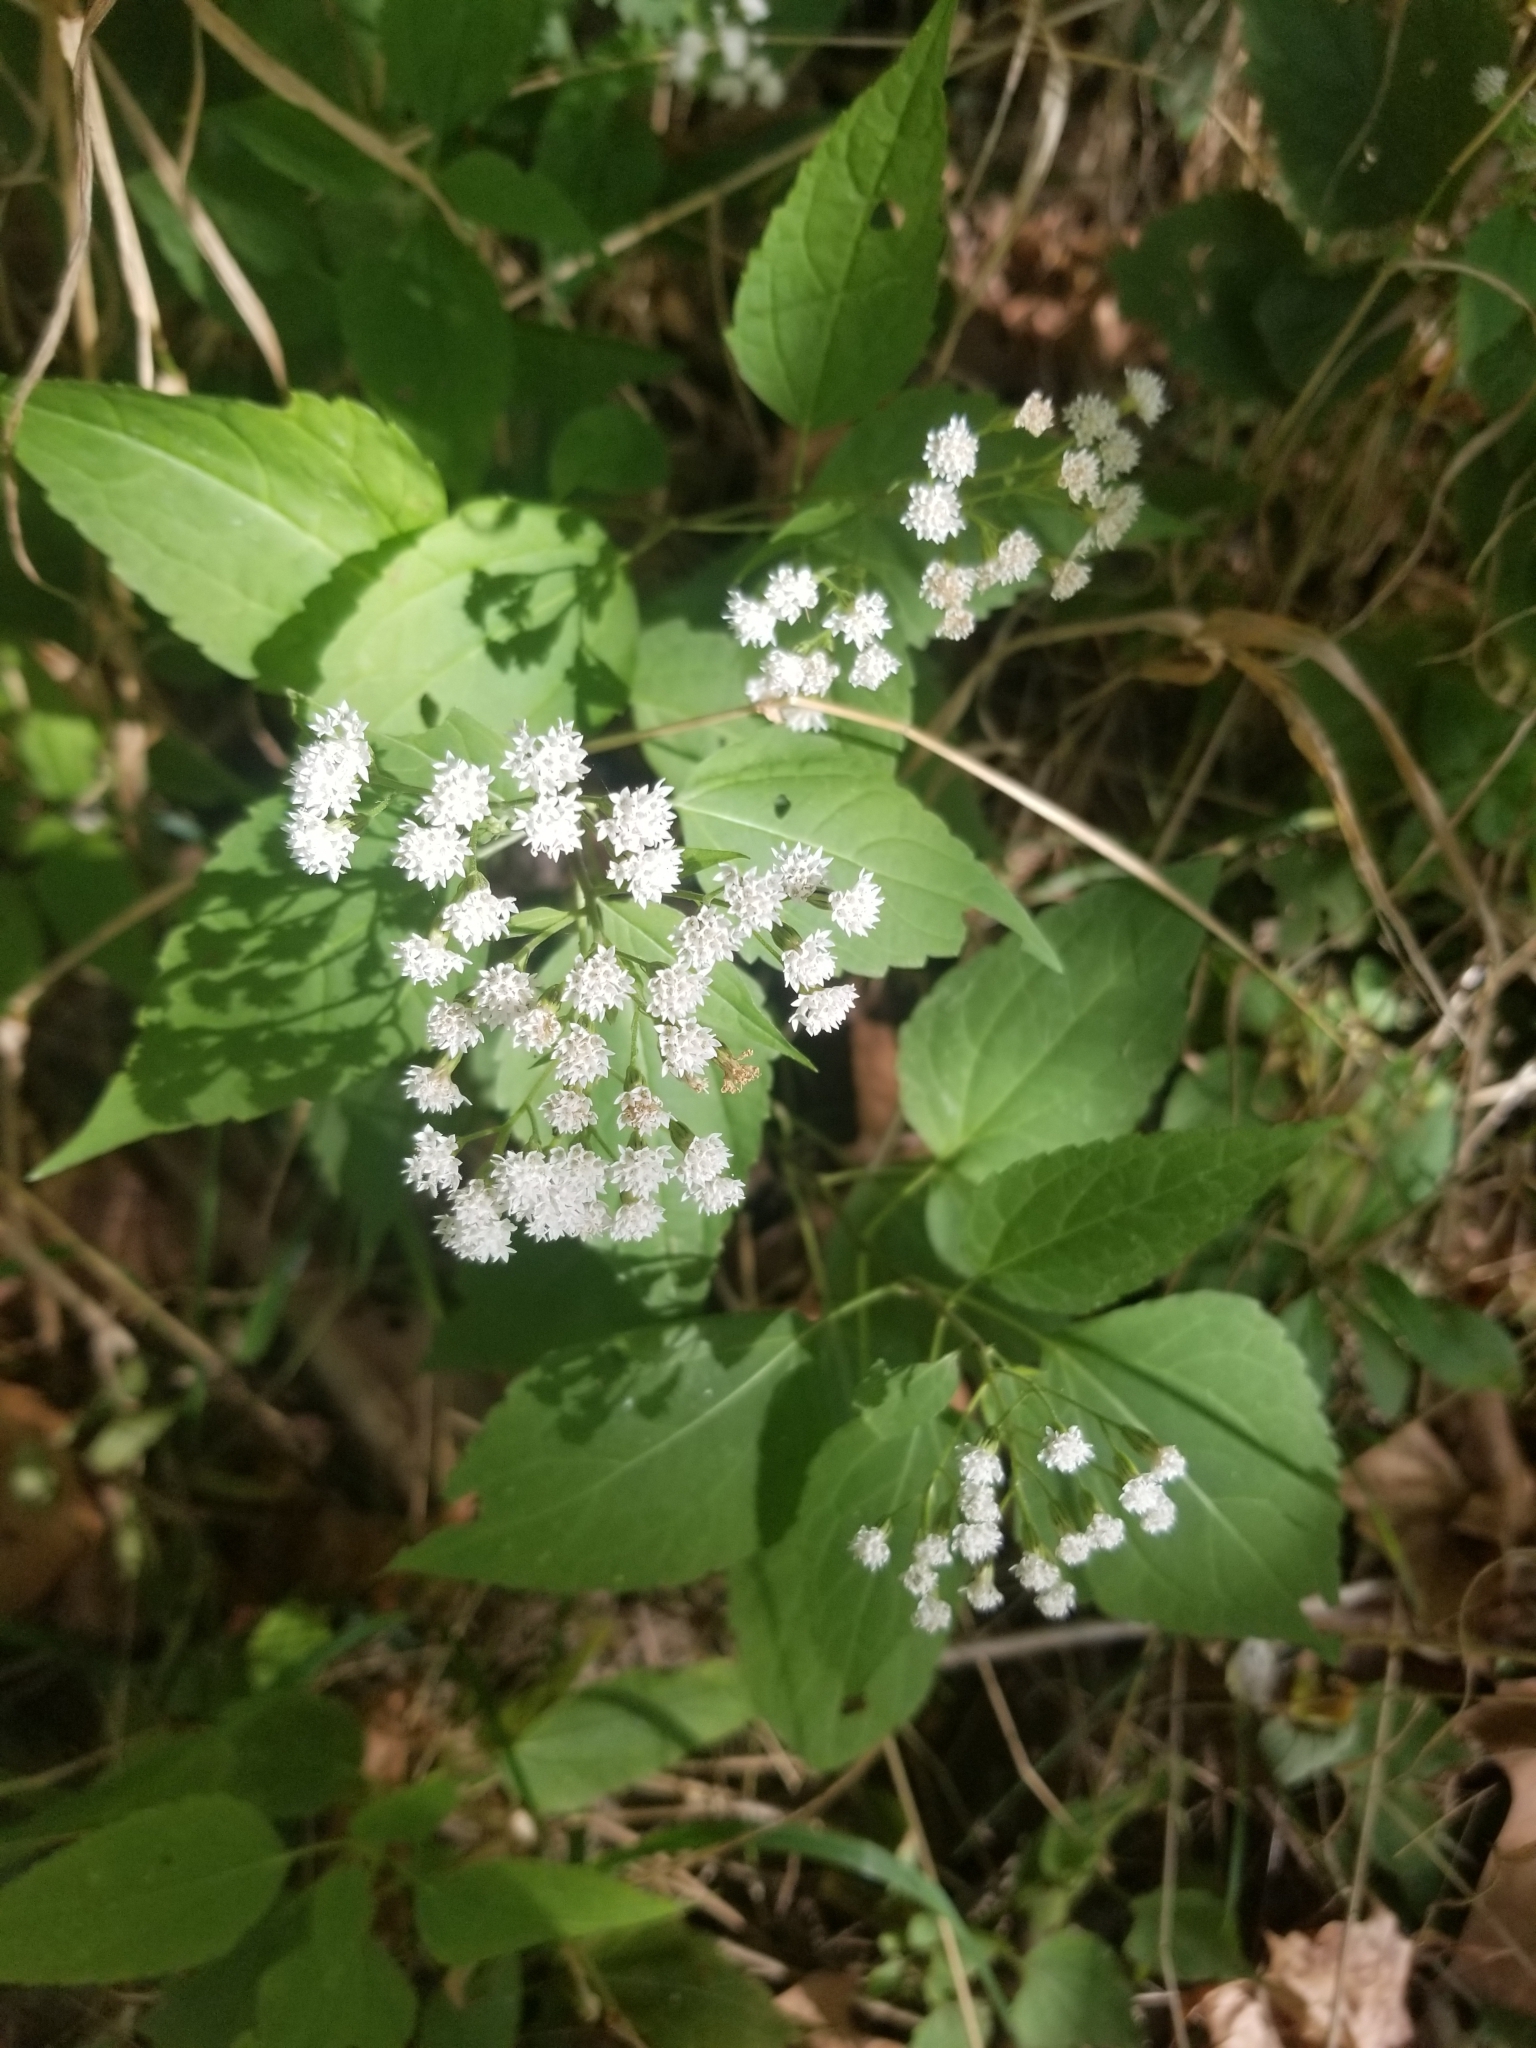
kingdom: Plantae
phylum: Tracheophyta
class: Magnoliopsida
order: Asterales
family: Asteraceae
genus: Ageratina
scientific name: Ageratina altissima
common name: White snakeroot
